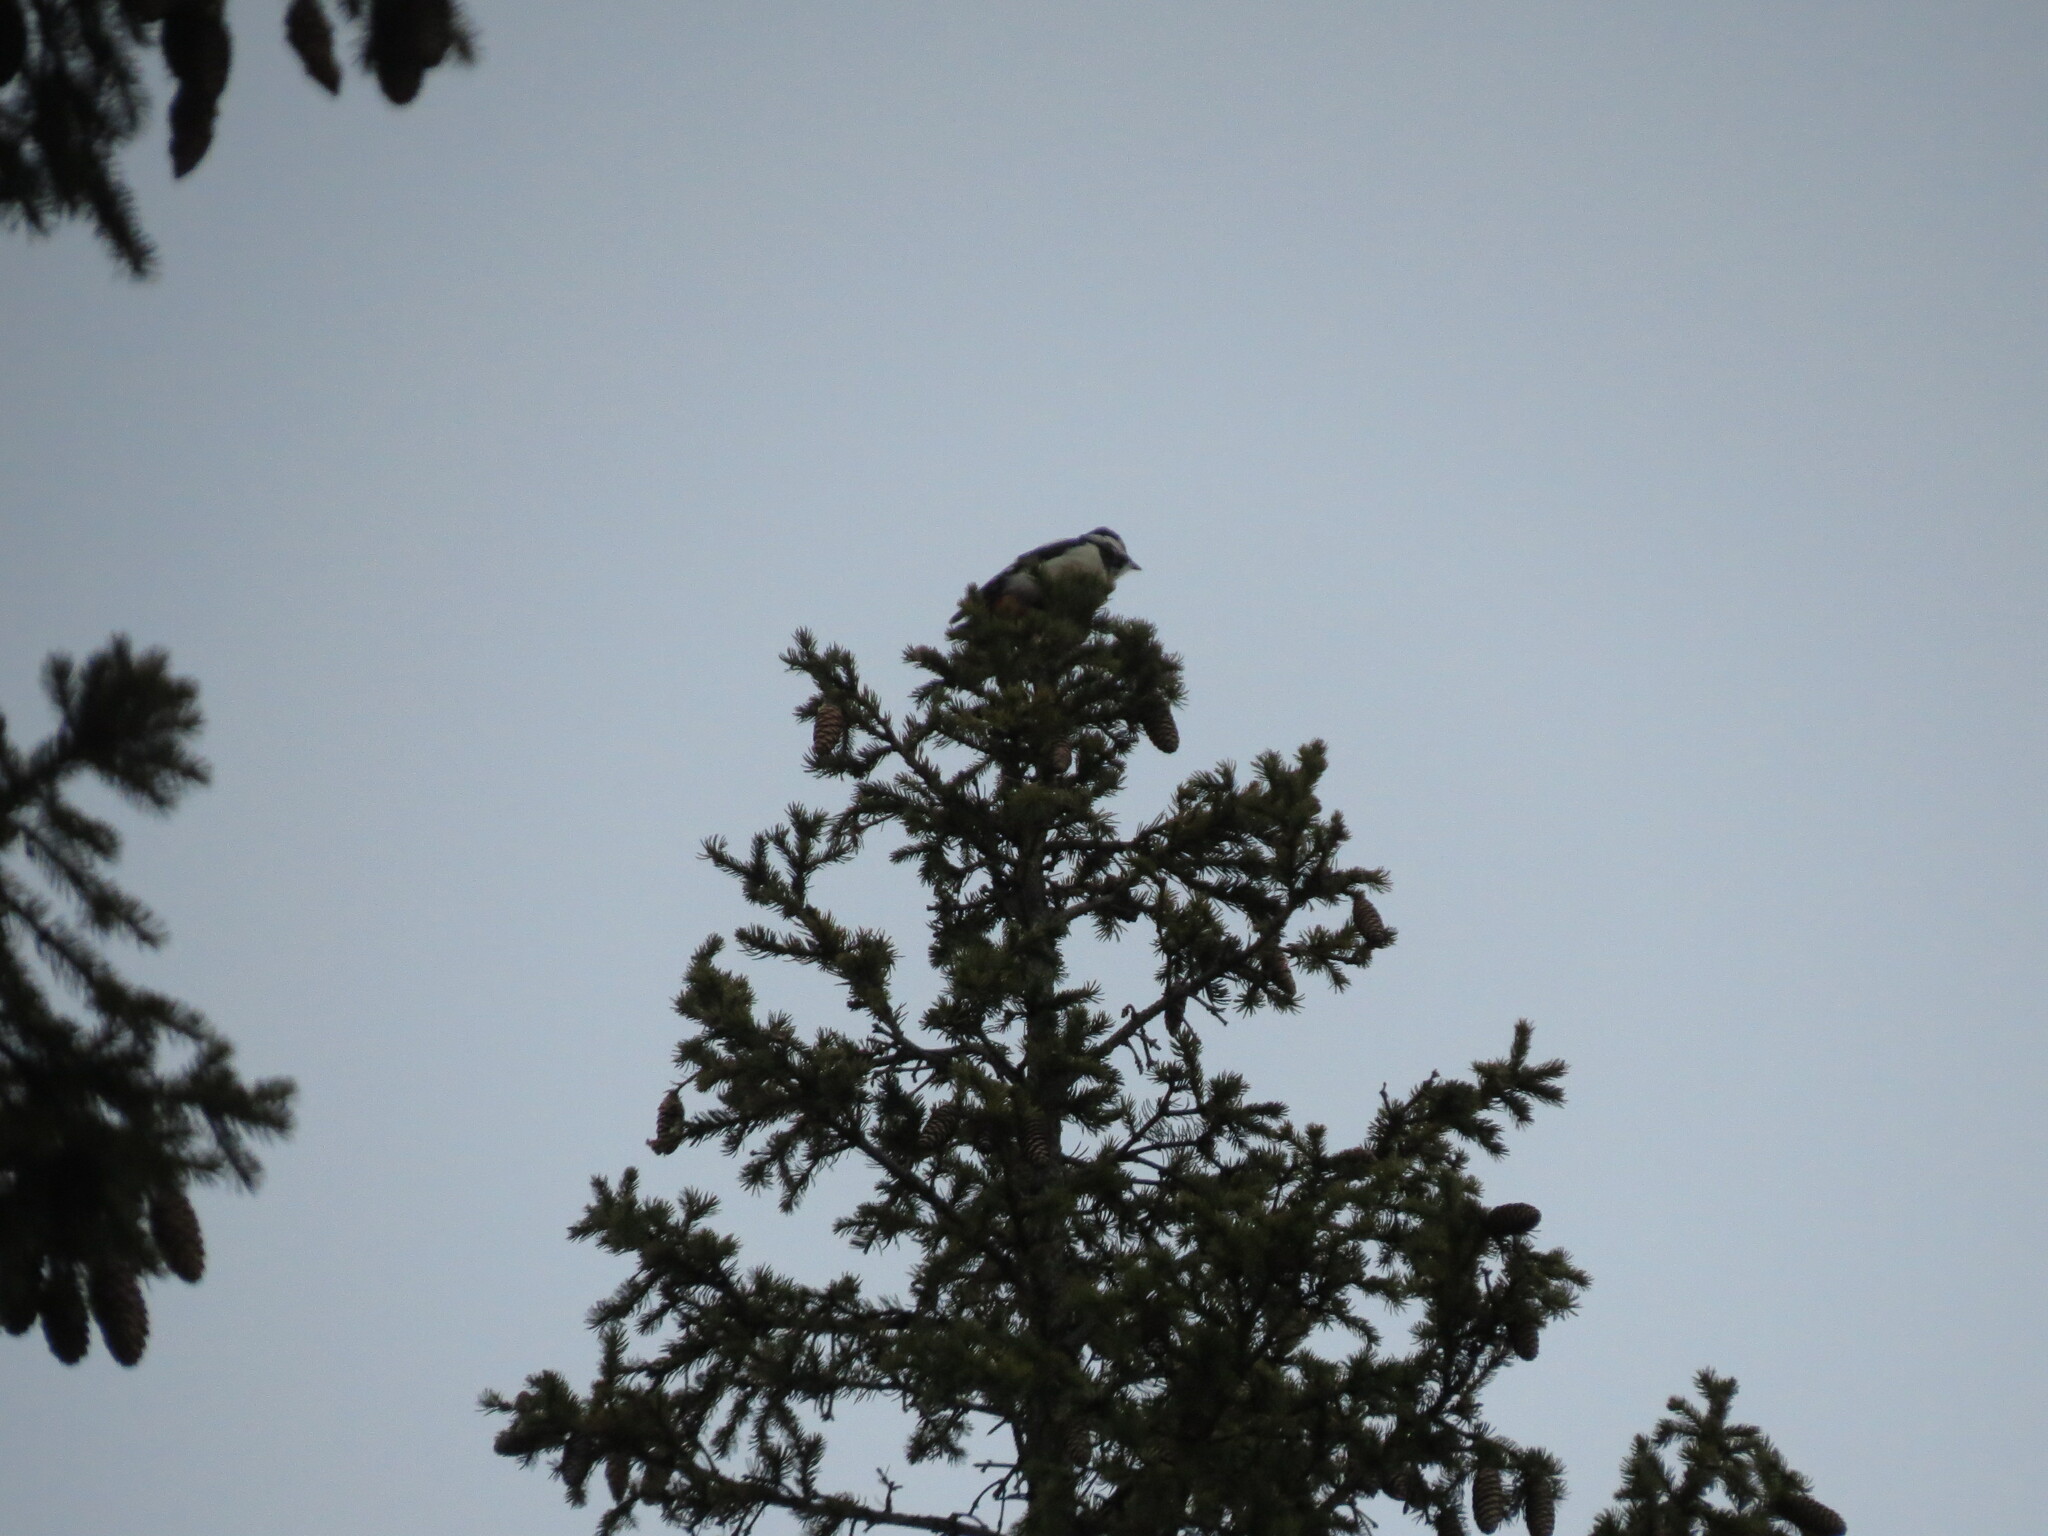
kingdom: Animalia
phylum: Chordata
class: Aves
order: Piciformes
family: Picidae
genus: Dendrocopos
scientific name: Dendrocopos major
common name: Great spotted woodpecker
